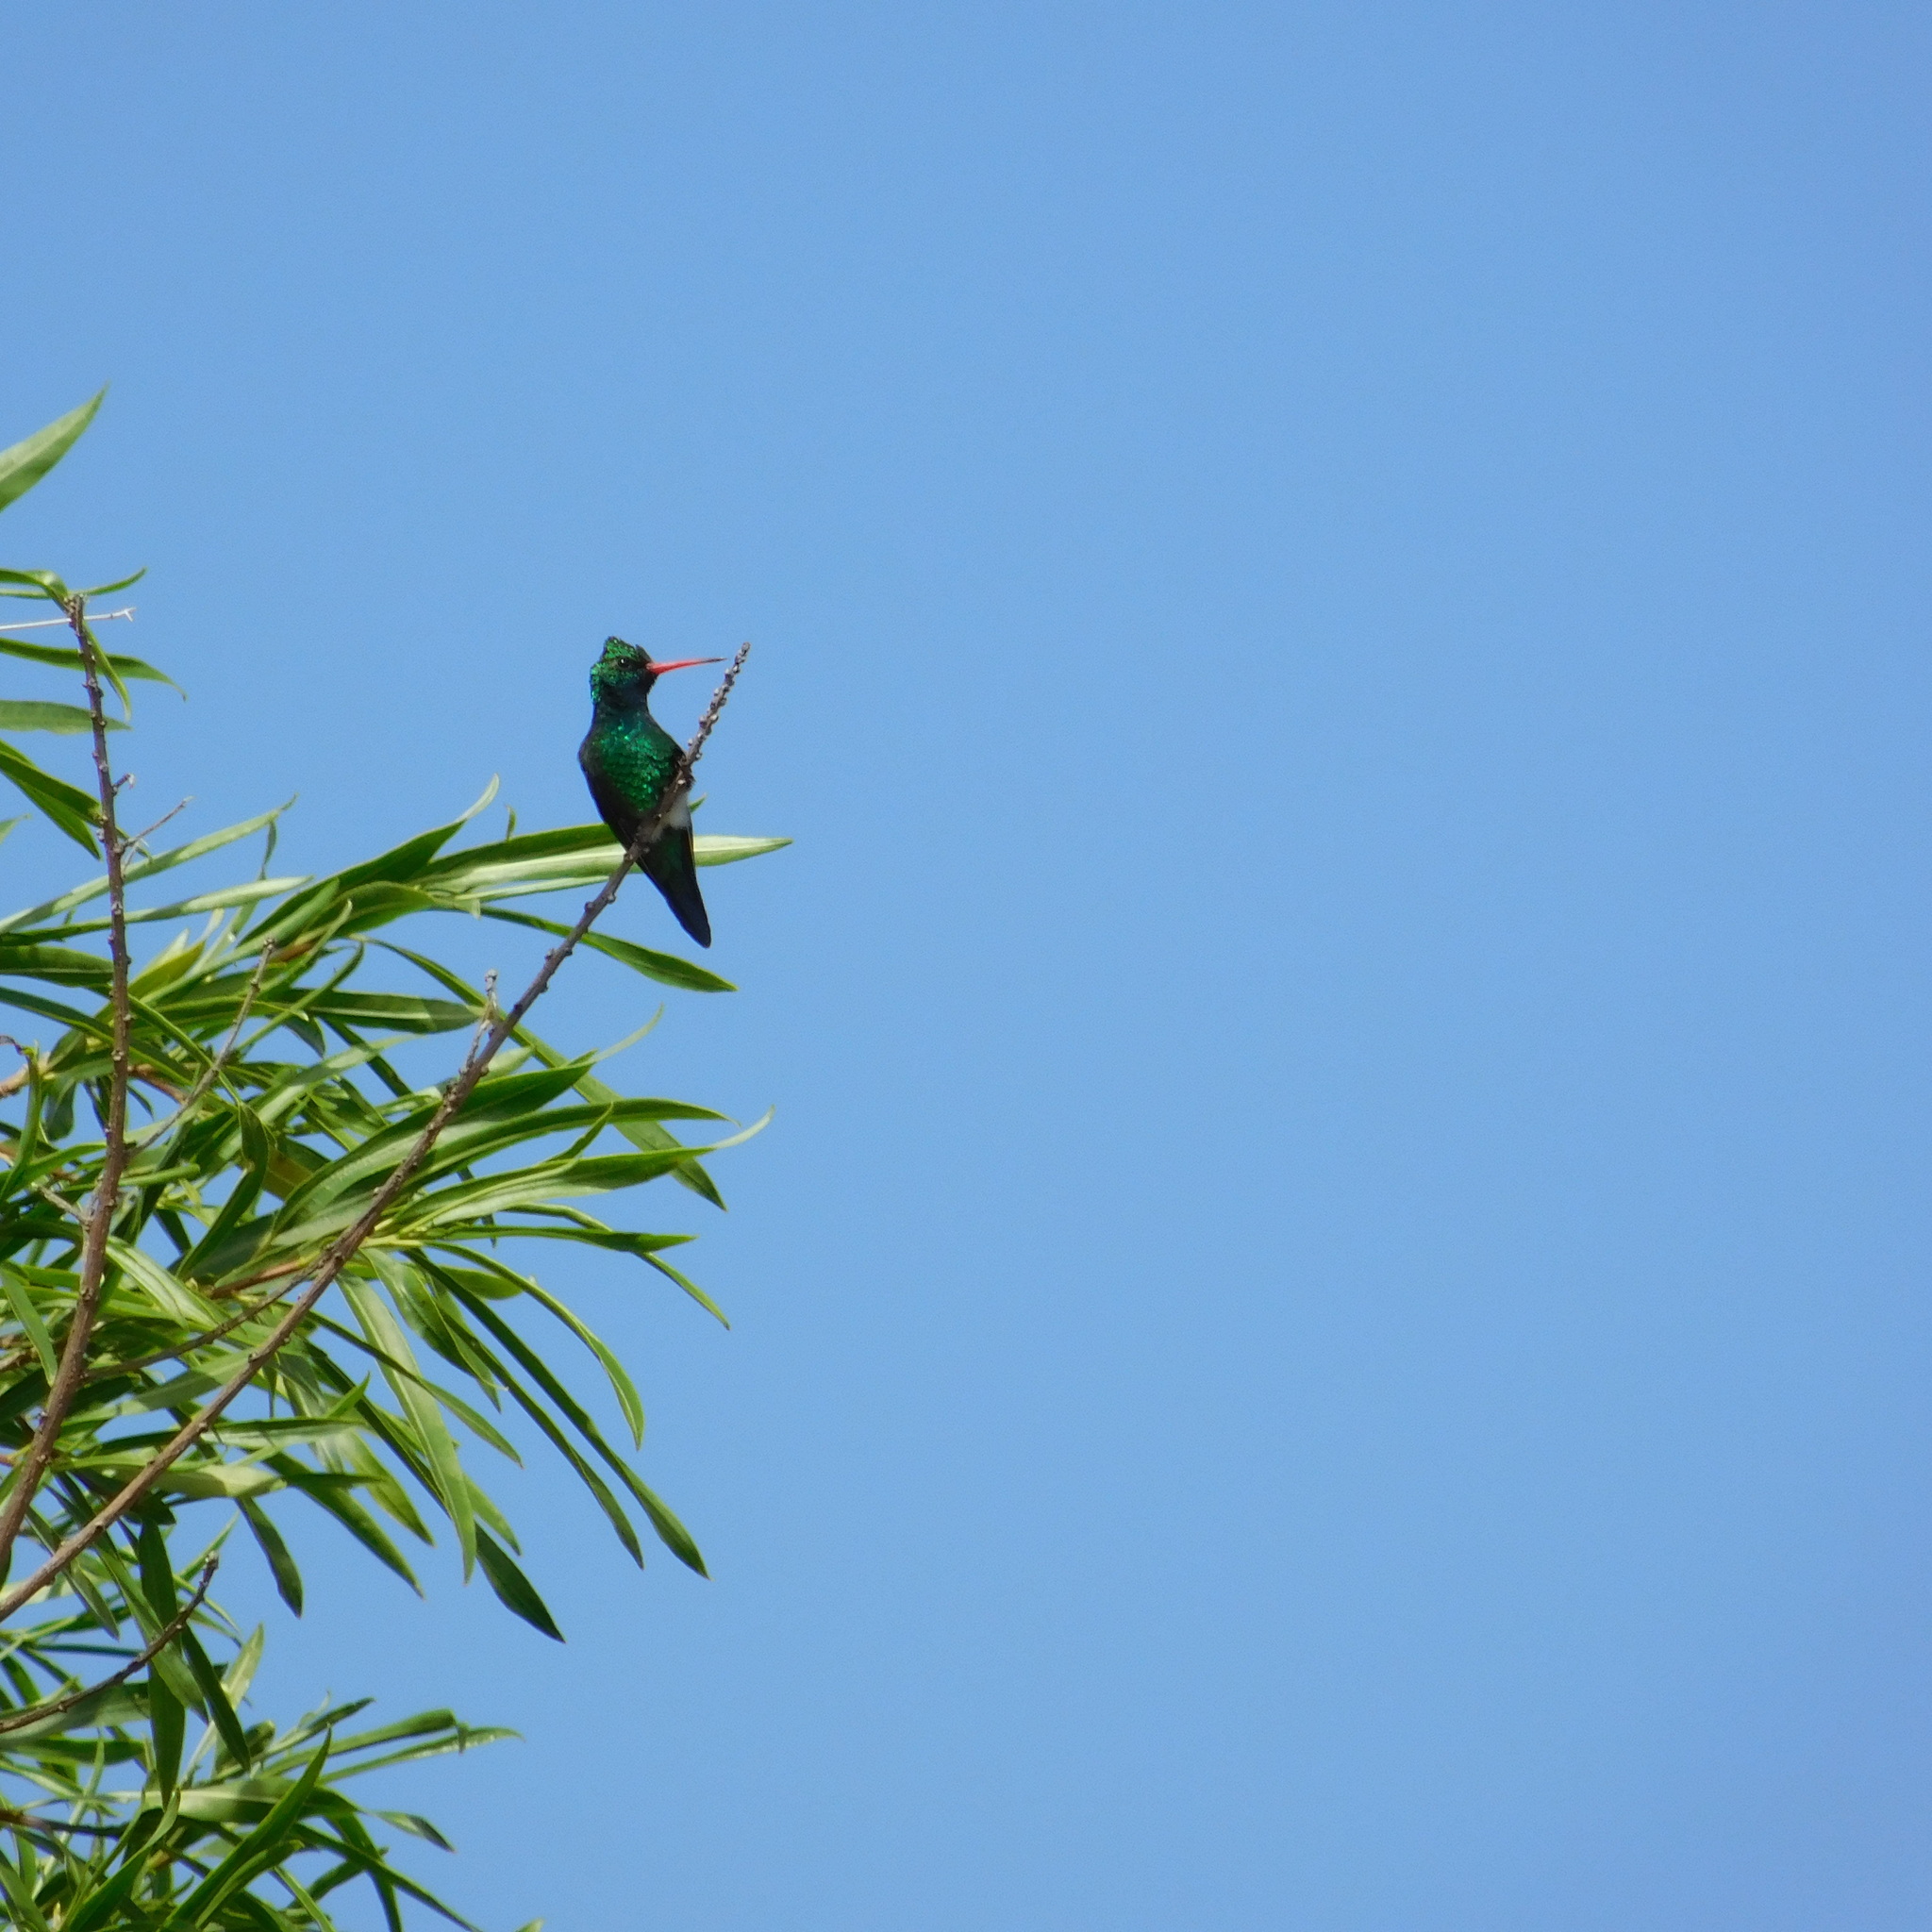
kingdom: Animalia
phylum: Chordata
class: Aves
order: Apodiformes
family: Trochilidae
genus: Chlorostilbon
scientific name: Chlorostilbon lucidus
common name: Glittering-bellied emerald
